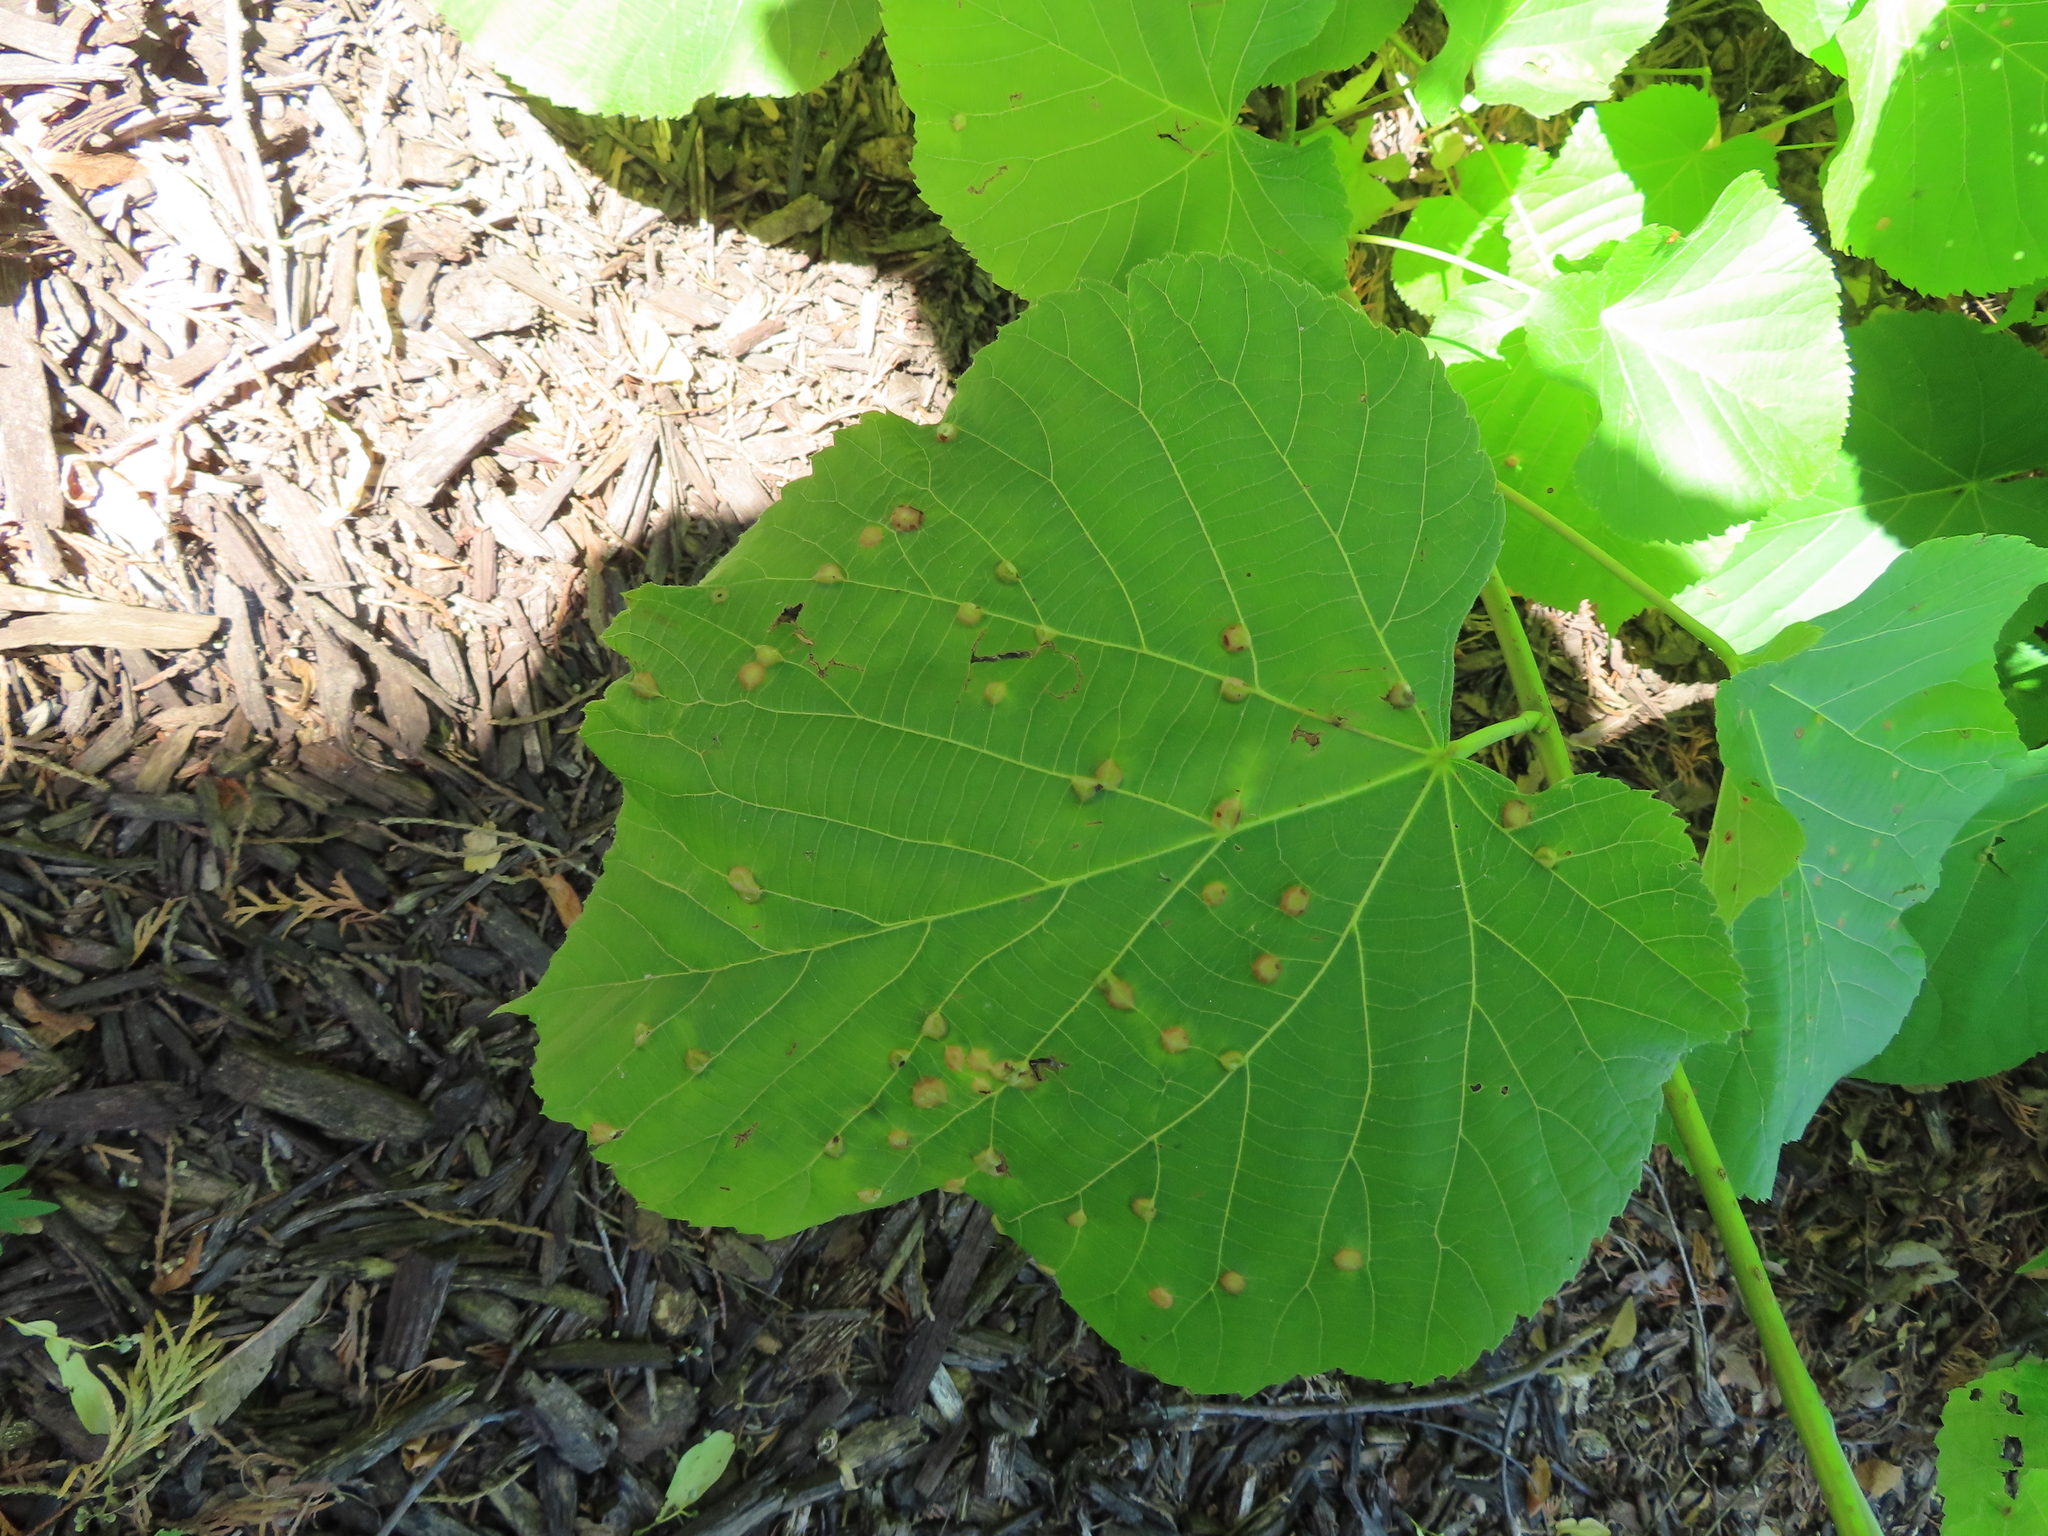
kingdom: Animalia
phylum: Arthropoda
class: Insecta
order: Diptera
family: Cecidomyiidae
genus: Contarinia
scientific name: Contarinia verrucicola
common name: Linden wart gall midge
